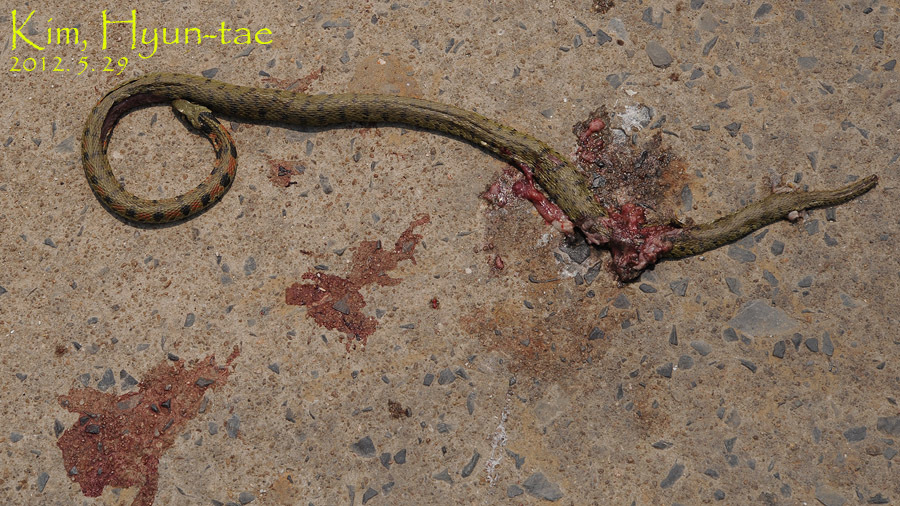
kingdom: Animalia
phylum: Chordata
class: Squamata
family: Colubridae
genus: Rhabdophis
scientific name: Rhabdophis tigrinus
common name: Tiger keelback
